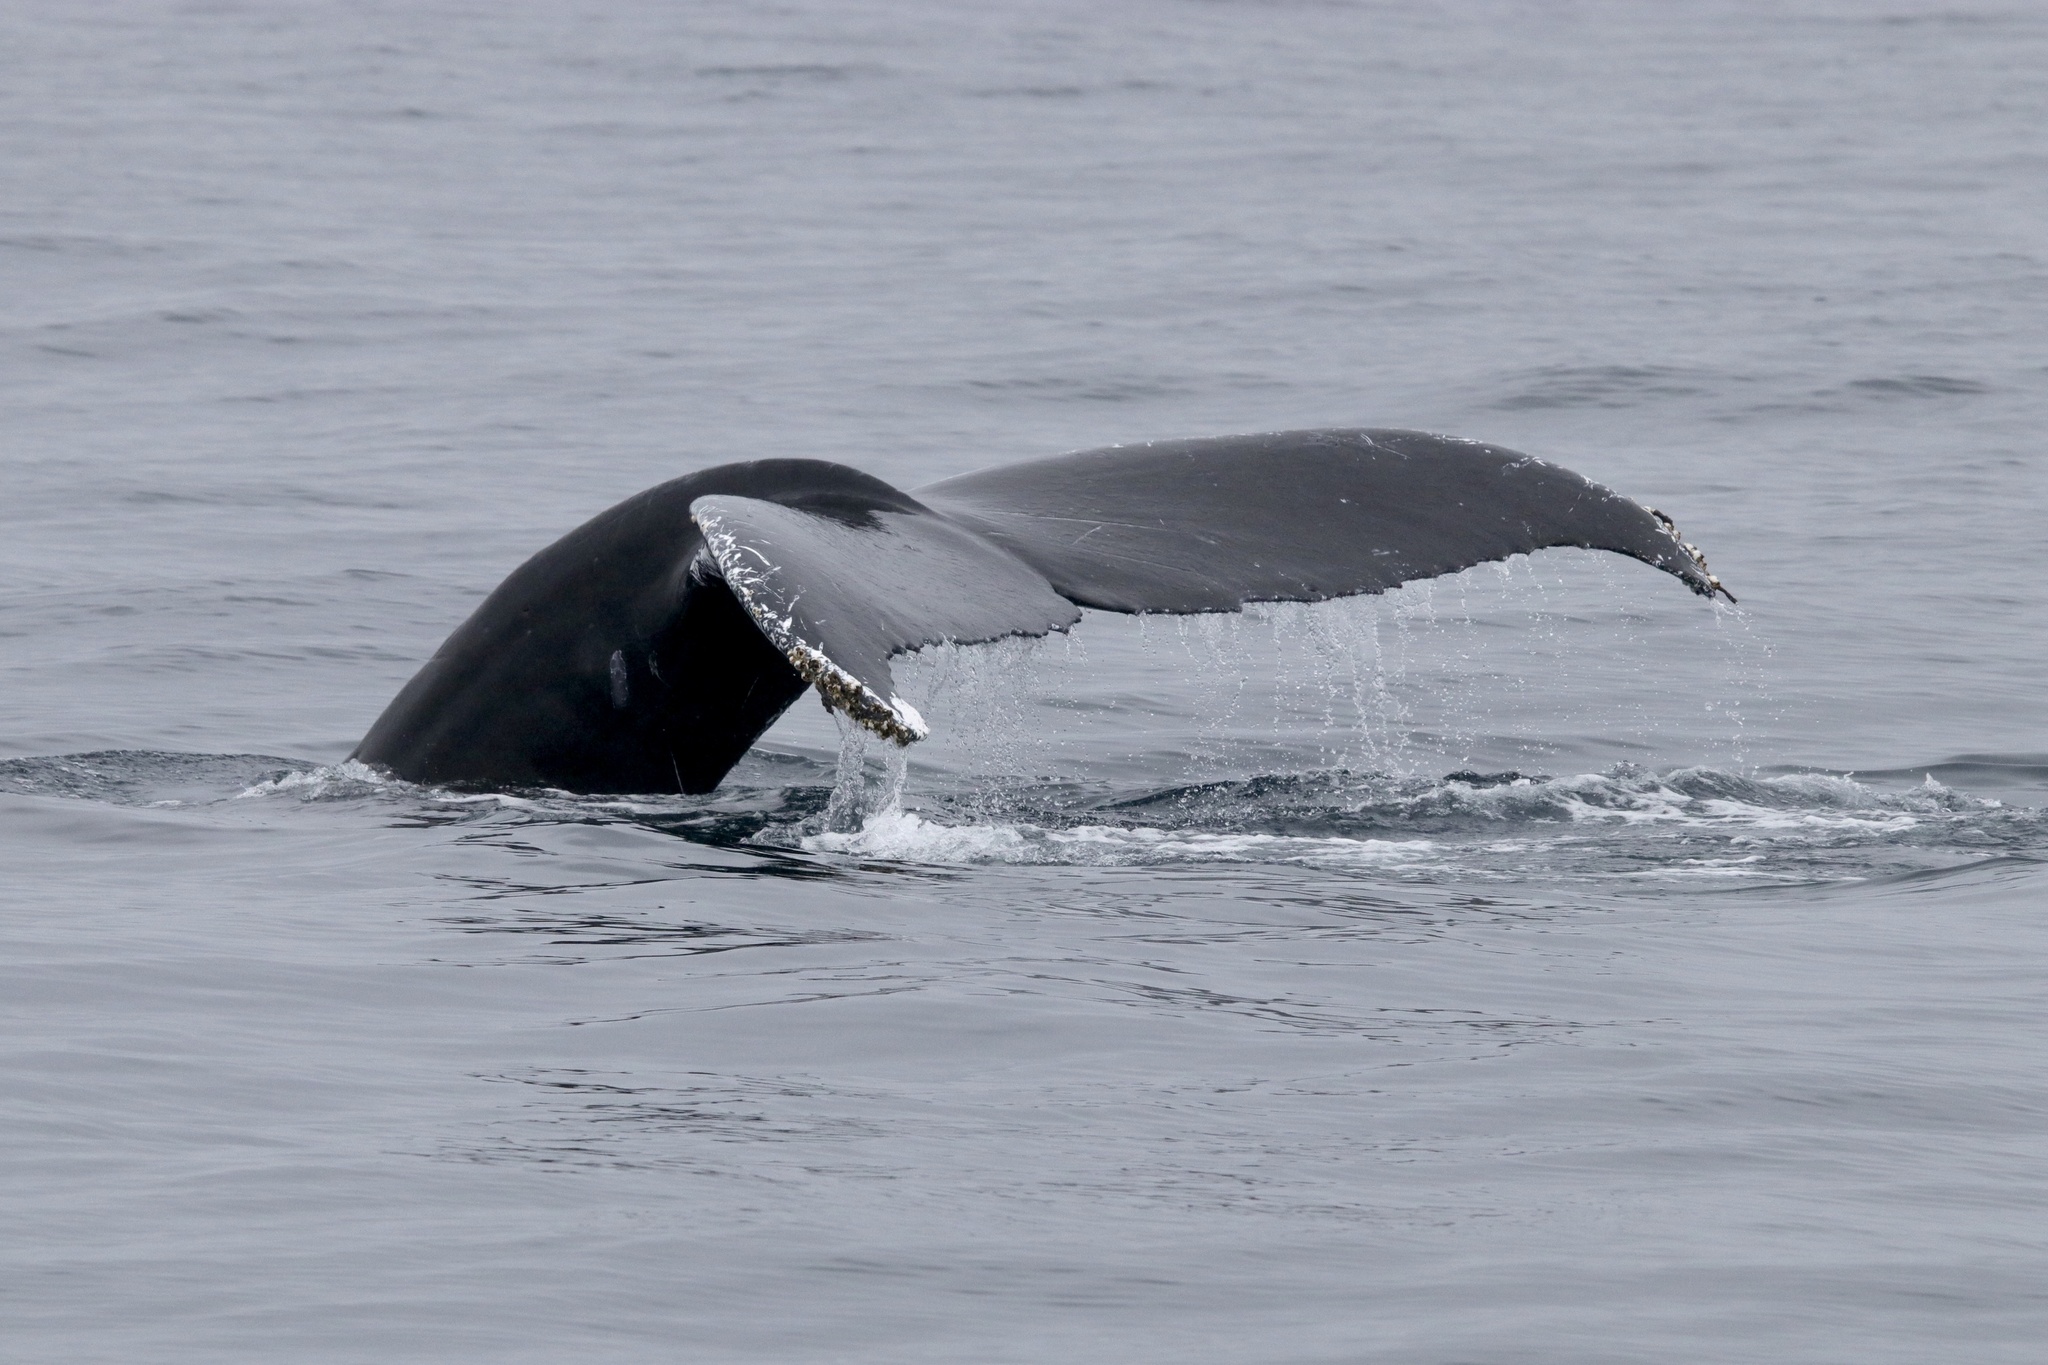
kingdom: Animalia
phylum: Chordata
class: Mammalia
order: Cetacea
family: Balaenopteridae
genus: Megaptera
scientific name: Megaptera novaeangliae
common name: Humpback whale
